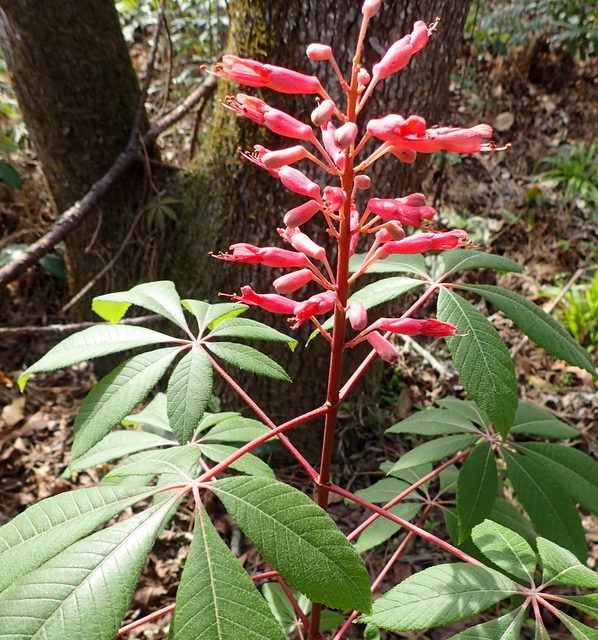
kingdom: Plantae
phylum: Tracheophyta
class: Magnoliopsida
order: Sapindales
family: Sapindaceae
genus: Aesculus
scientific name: Aesculus pavia
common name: Red buckeye
